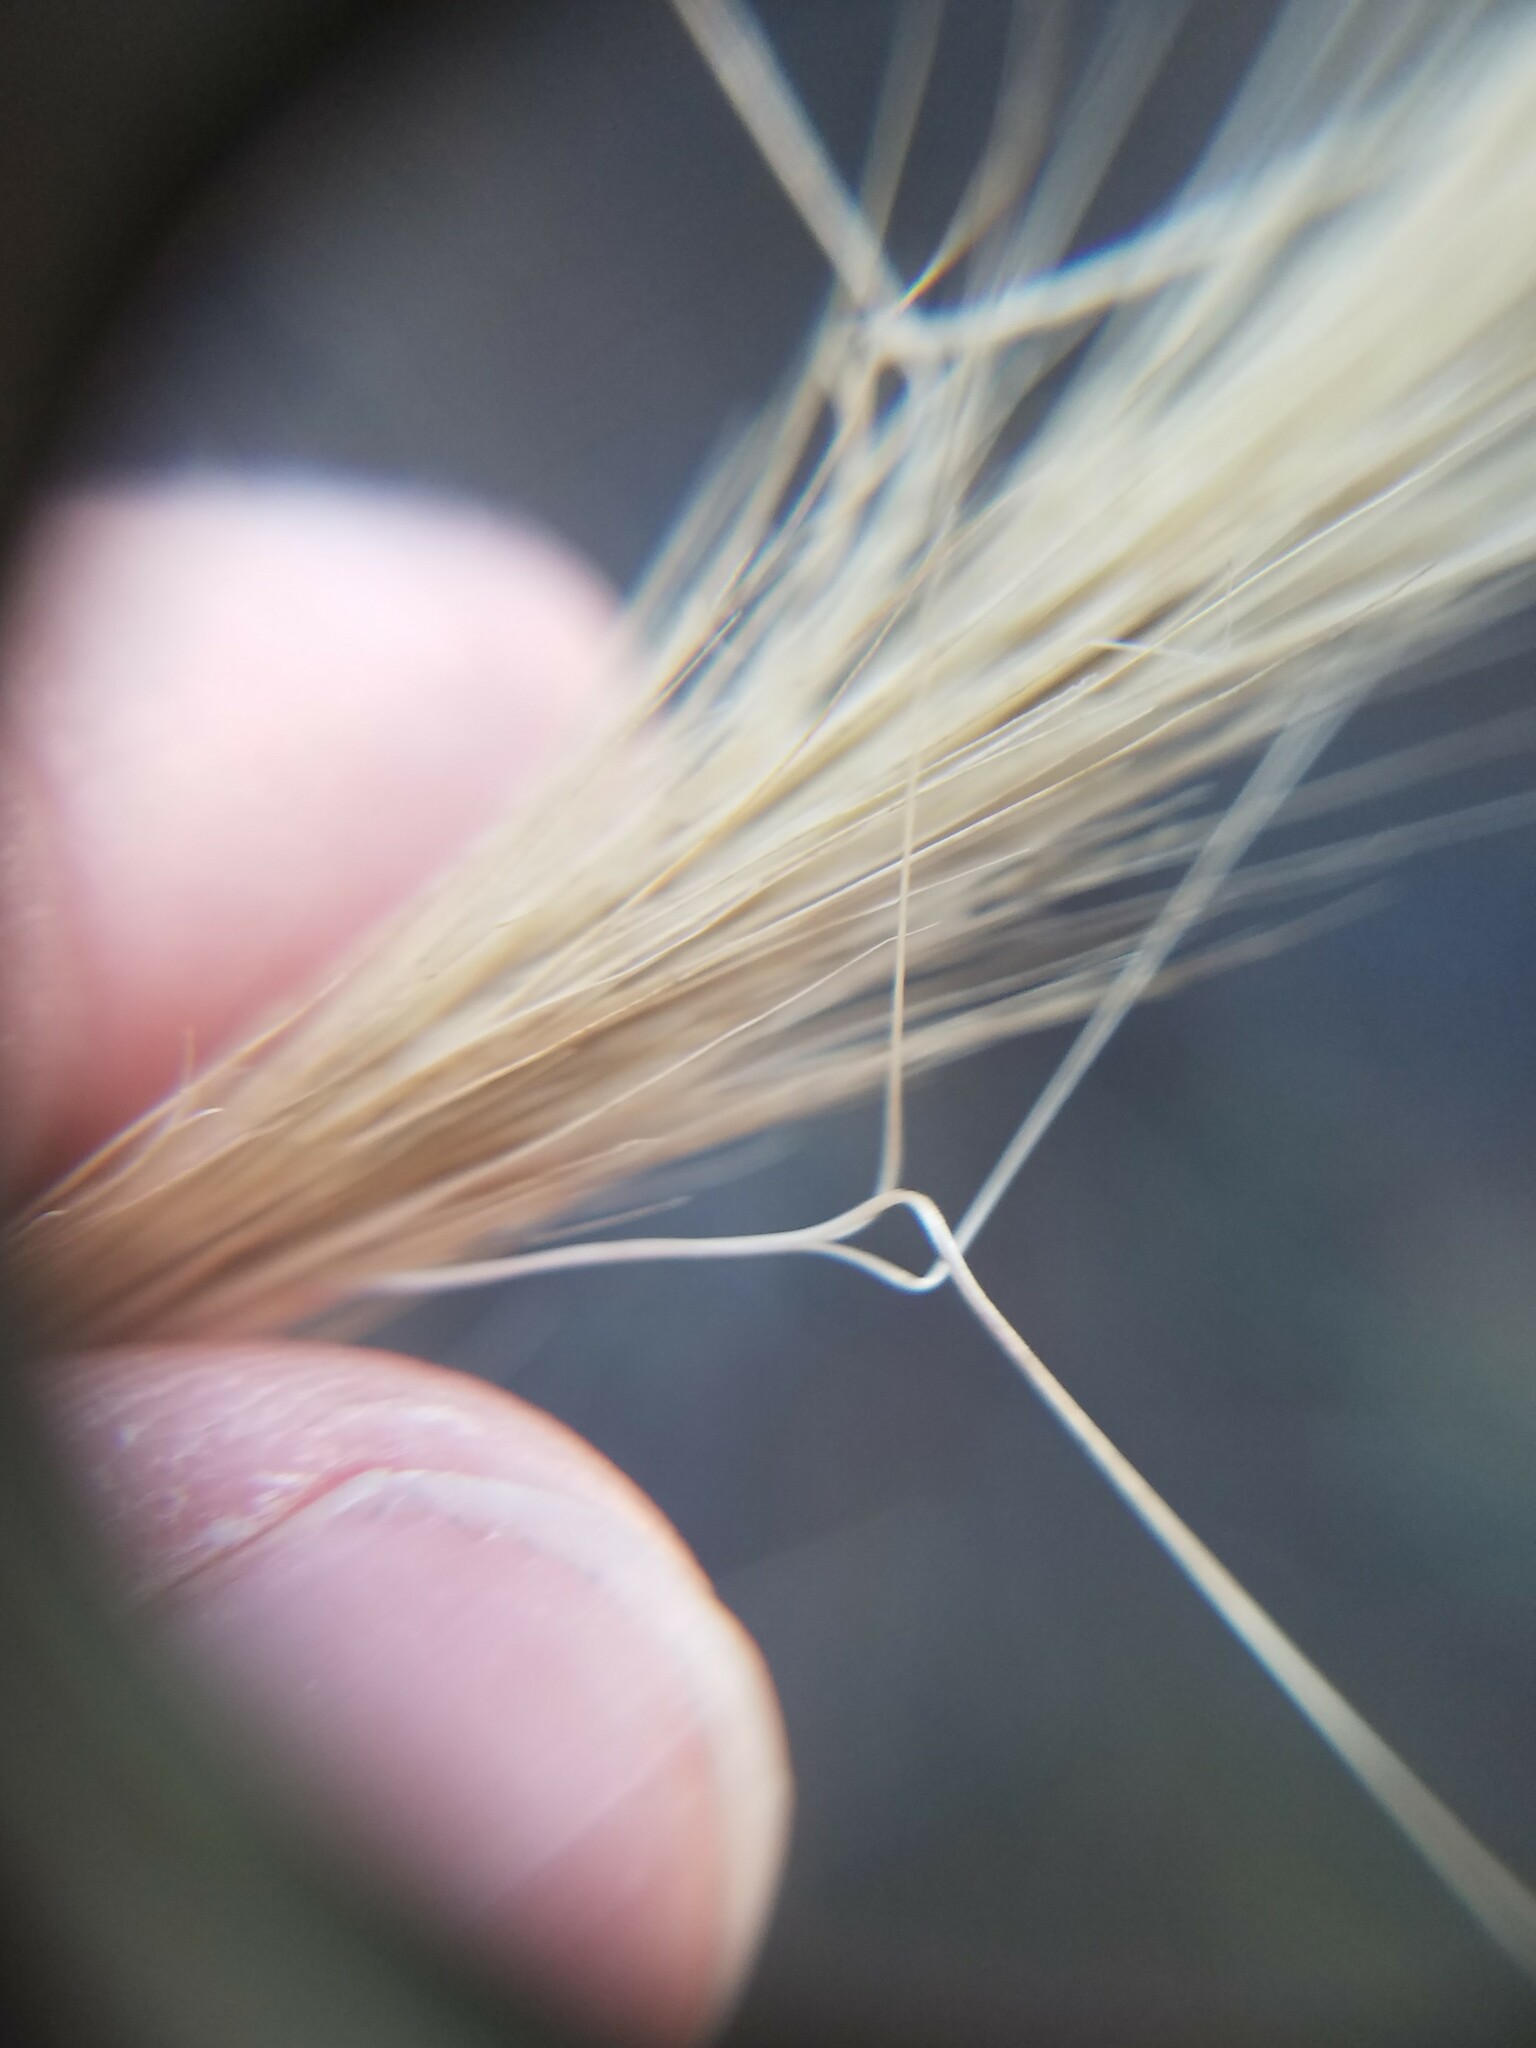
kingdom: Plantae
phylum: Tracheophyta
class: Liliopsida
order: Poales
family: Poaceae
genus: Aristida
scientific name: Aristida spiciformis
